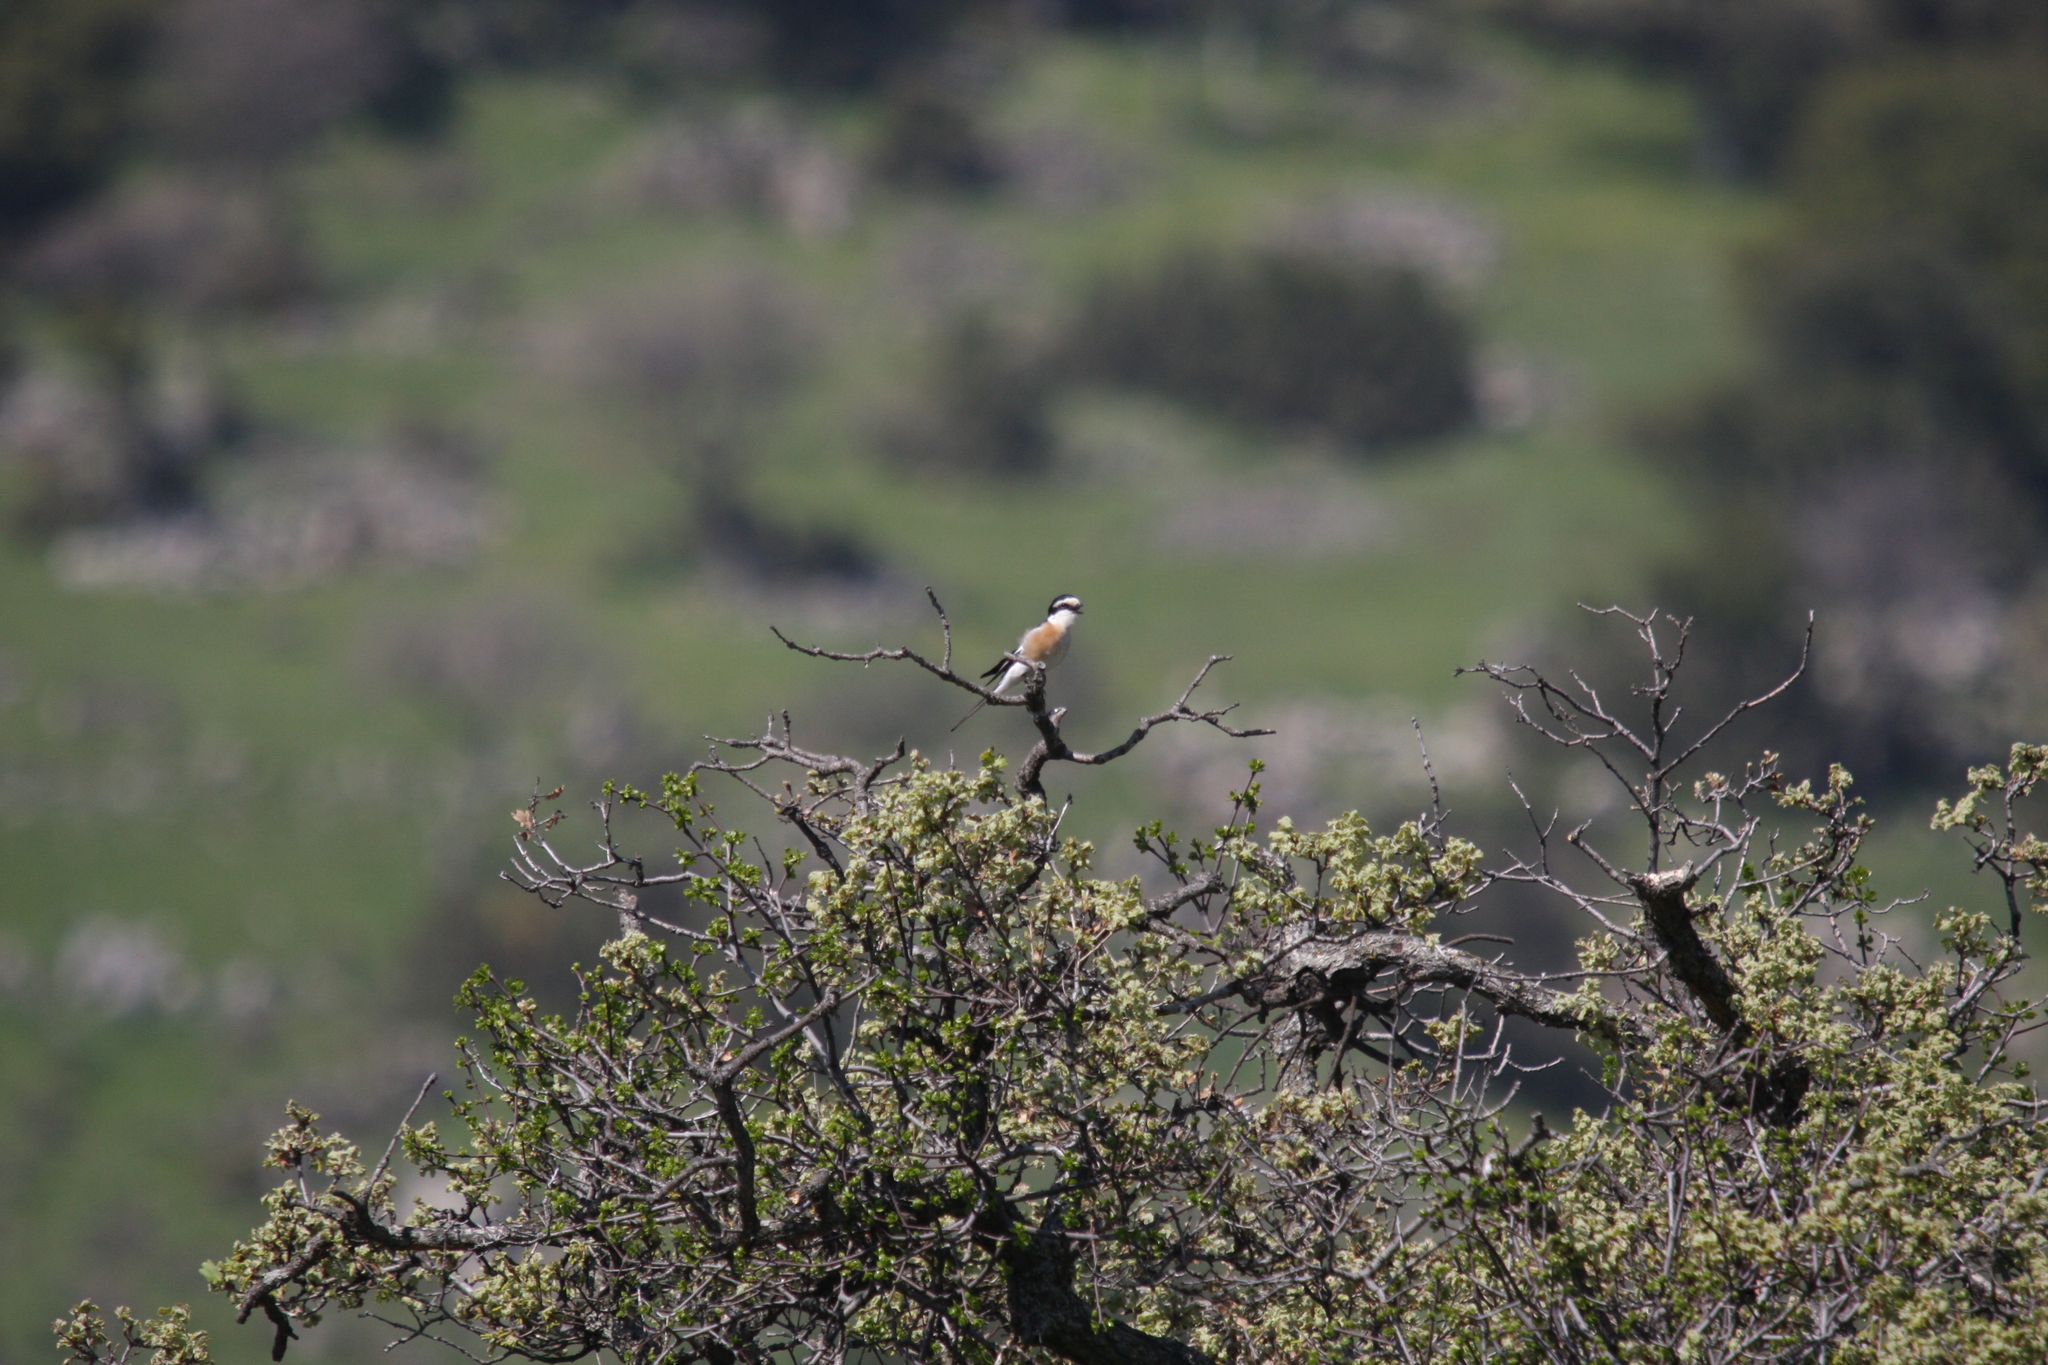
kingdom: Animalia
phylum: Chordata
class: Aves
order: Passeriformes
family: Laniidae
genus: Lanius
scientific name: Lanius nubicus
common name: Masked shrike
